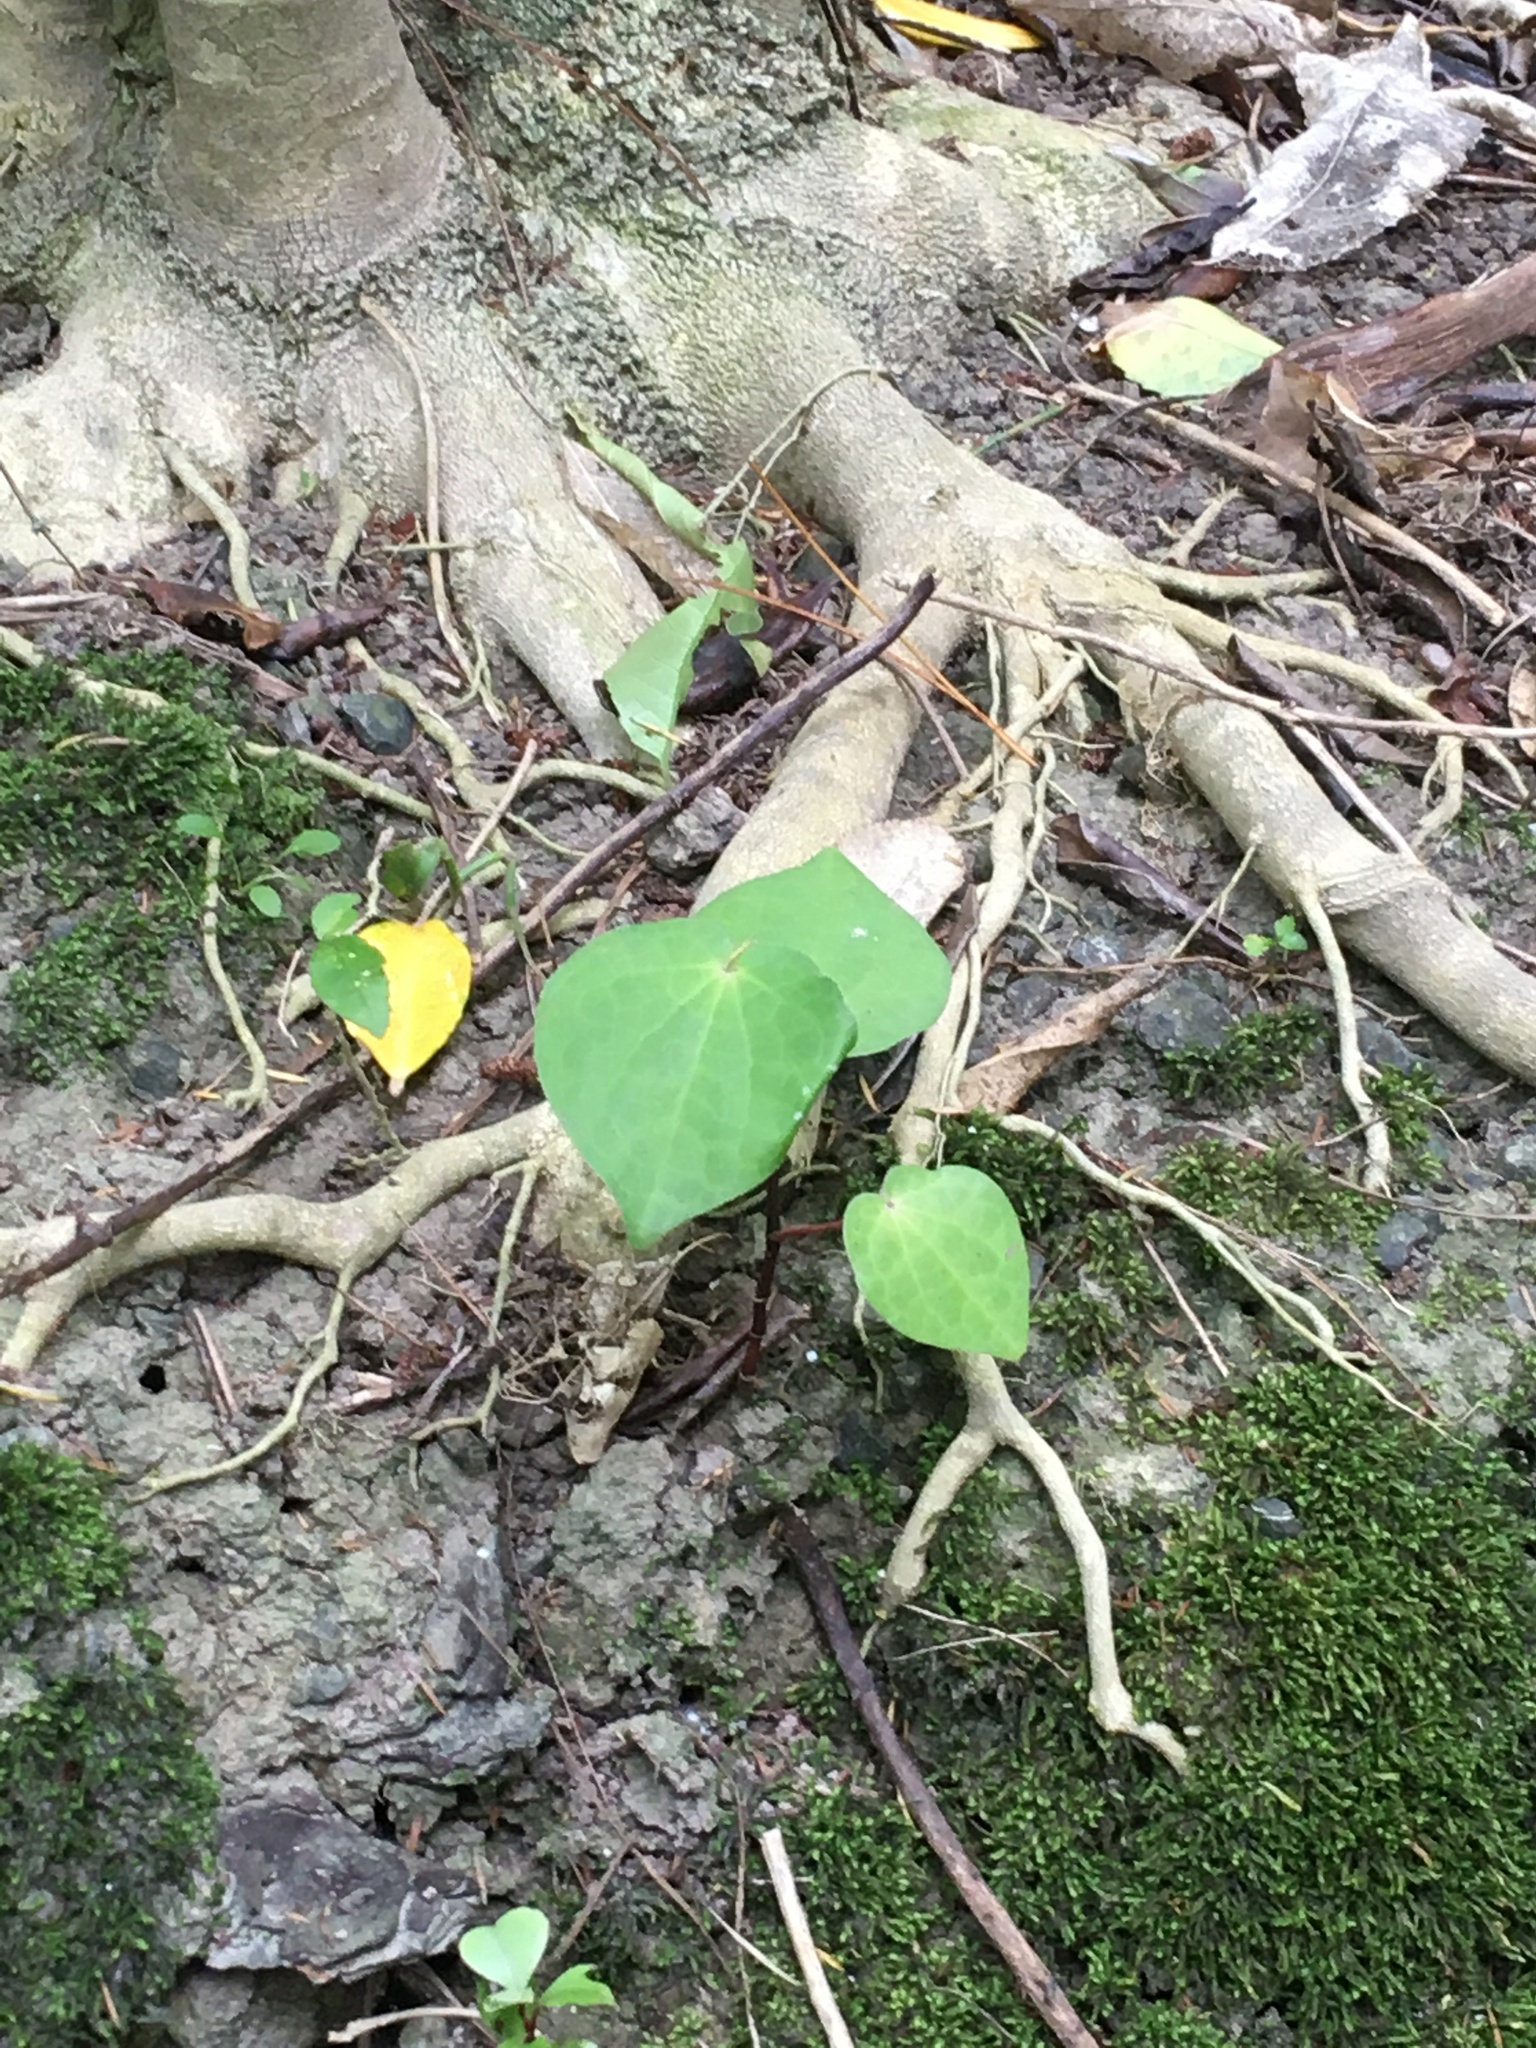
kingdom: Plantae
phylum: Tracheophyta
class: Magnoliopsida
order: Piperales
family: Piperaceae
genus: Macropiper
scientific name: Macropiper excelsum
